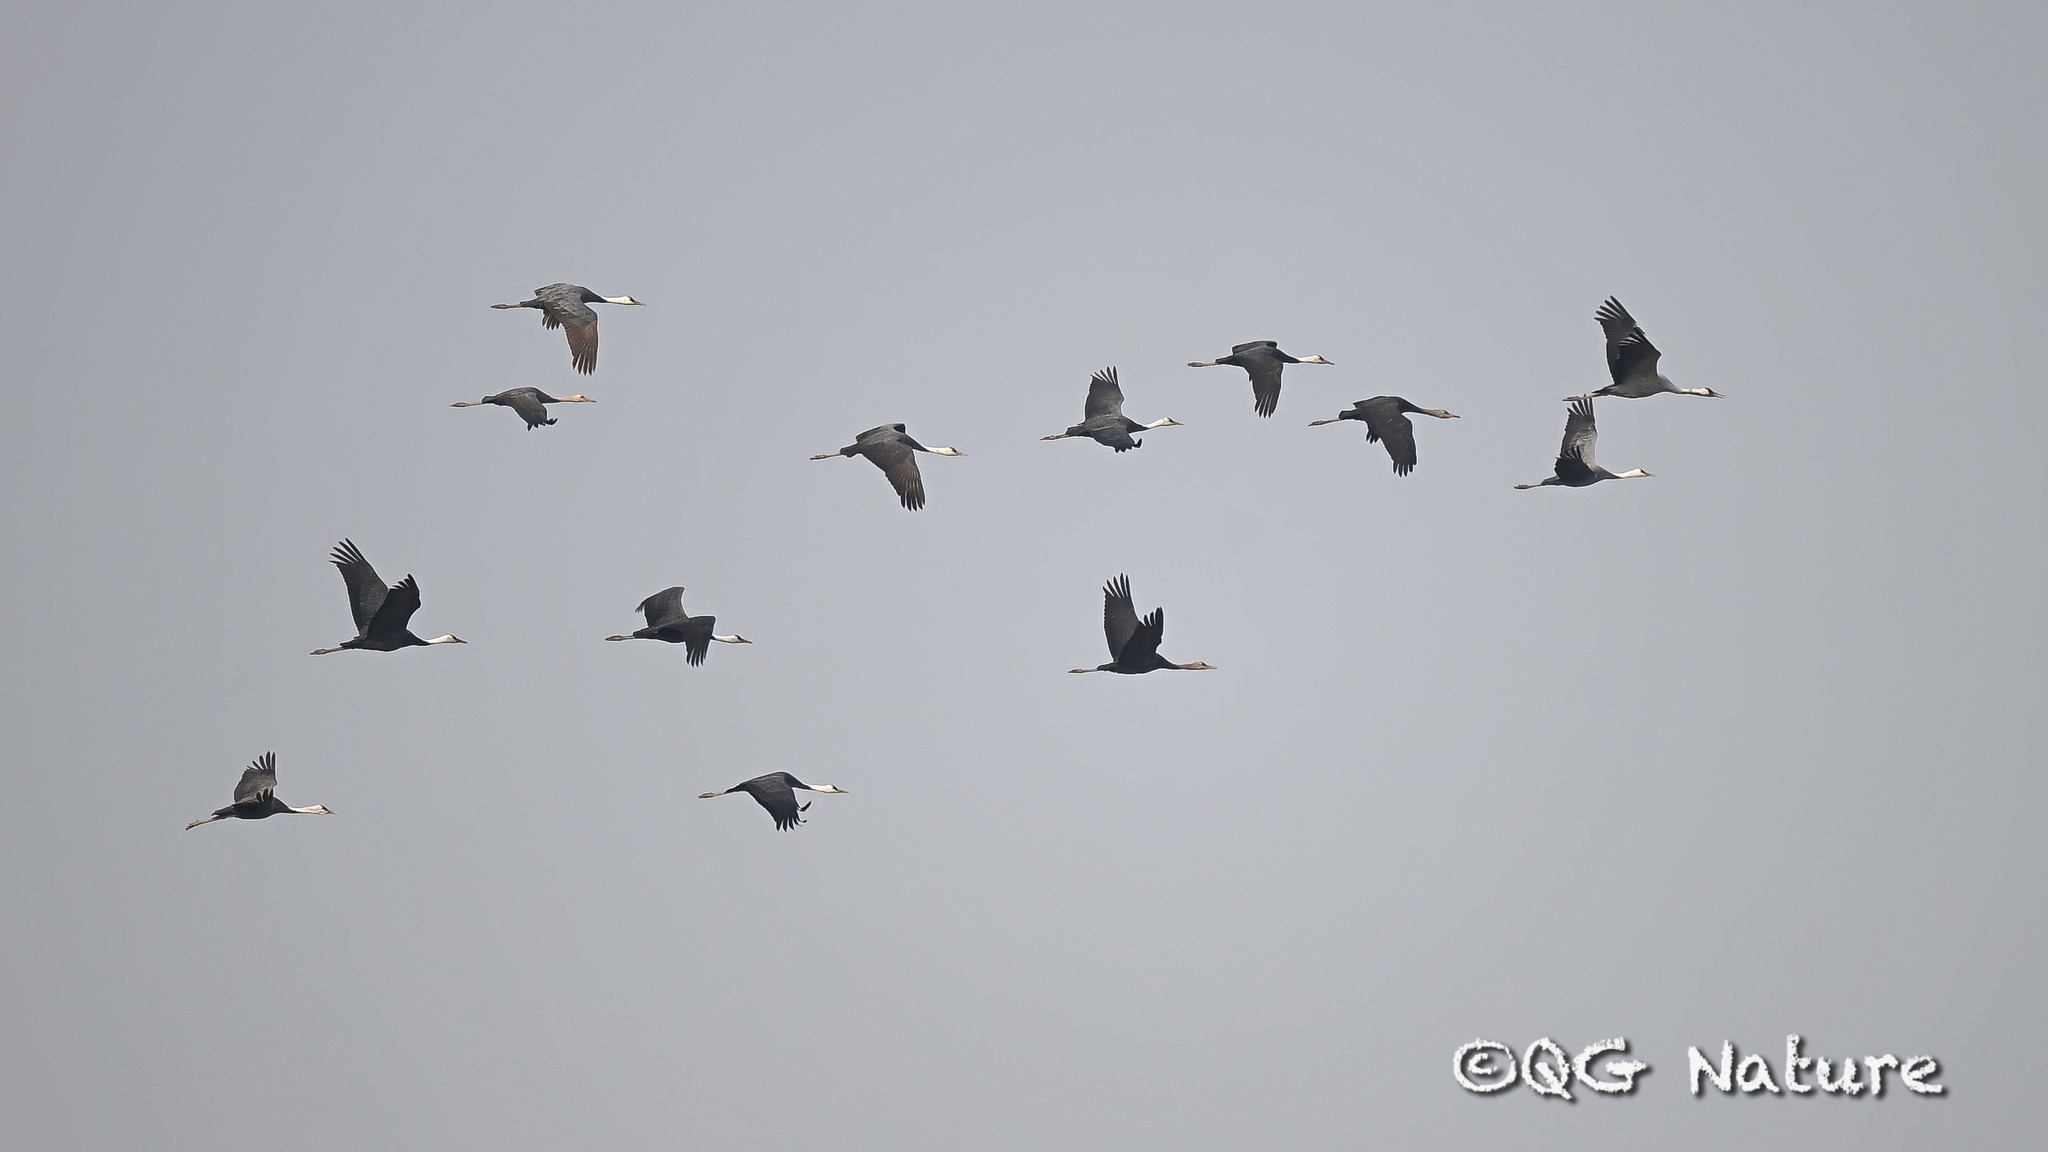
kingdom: Animalia
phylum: Chordata
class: Aves
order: Gruiformes
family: Gruidae
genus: Grus
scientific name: Grus monacha
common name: Hooded crane
